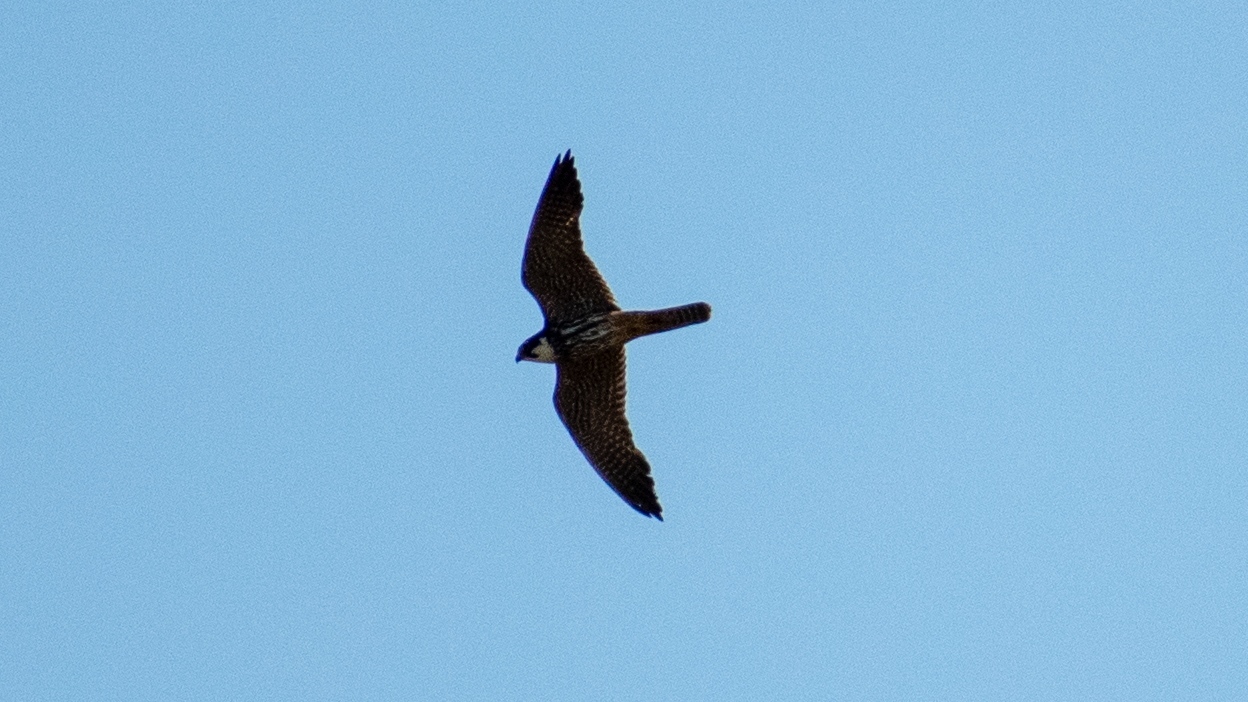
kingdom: Animalia
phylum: Chordata
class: Aves
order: Falconiformes
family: Falconidae
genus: Falco
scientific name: Falco subbuteo
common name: Eurasian hobby
